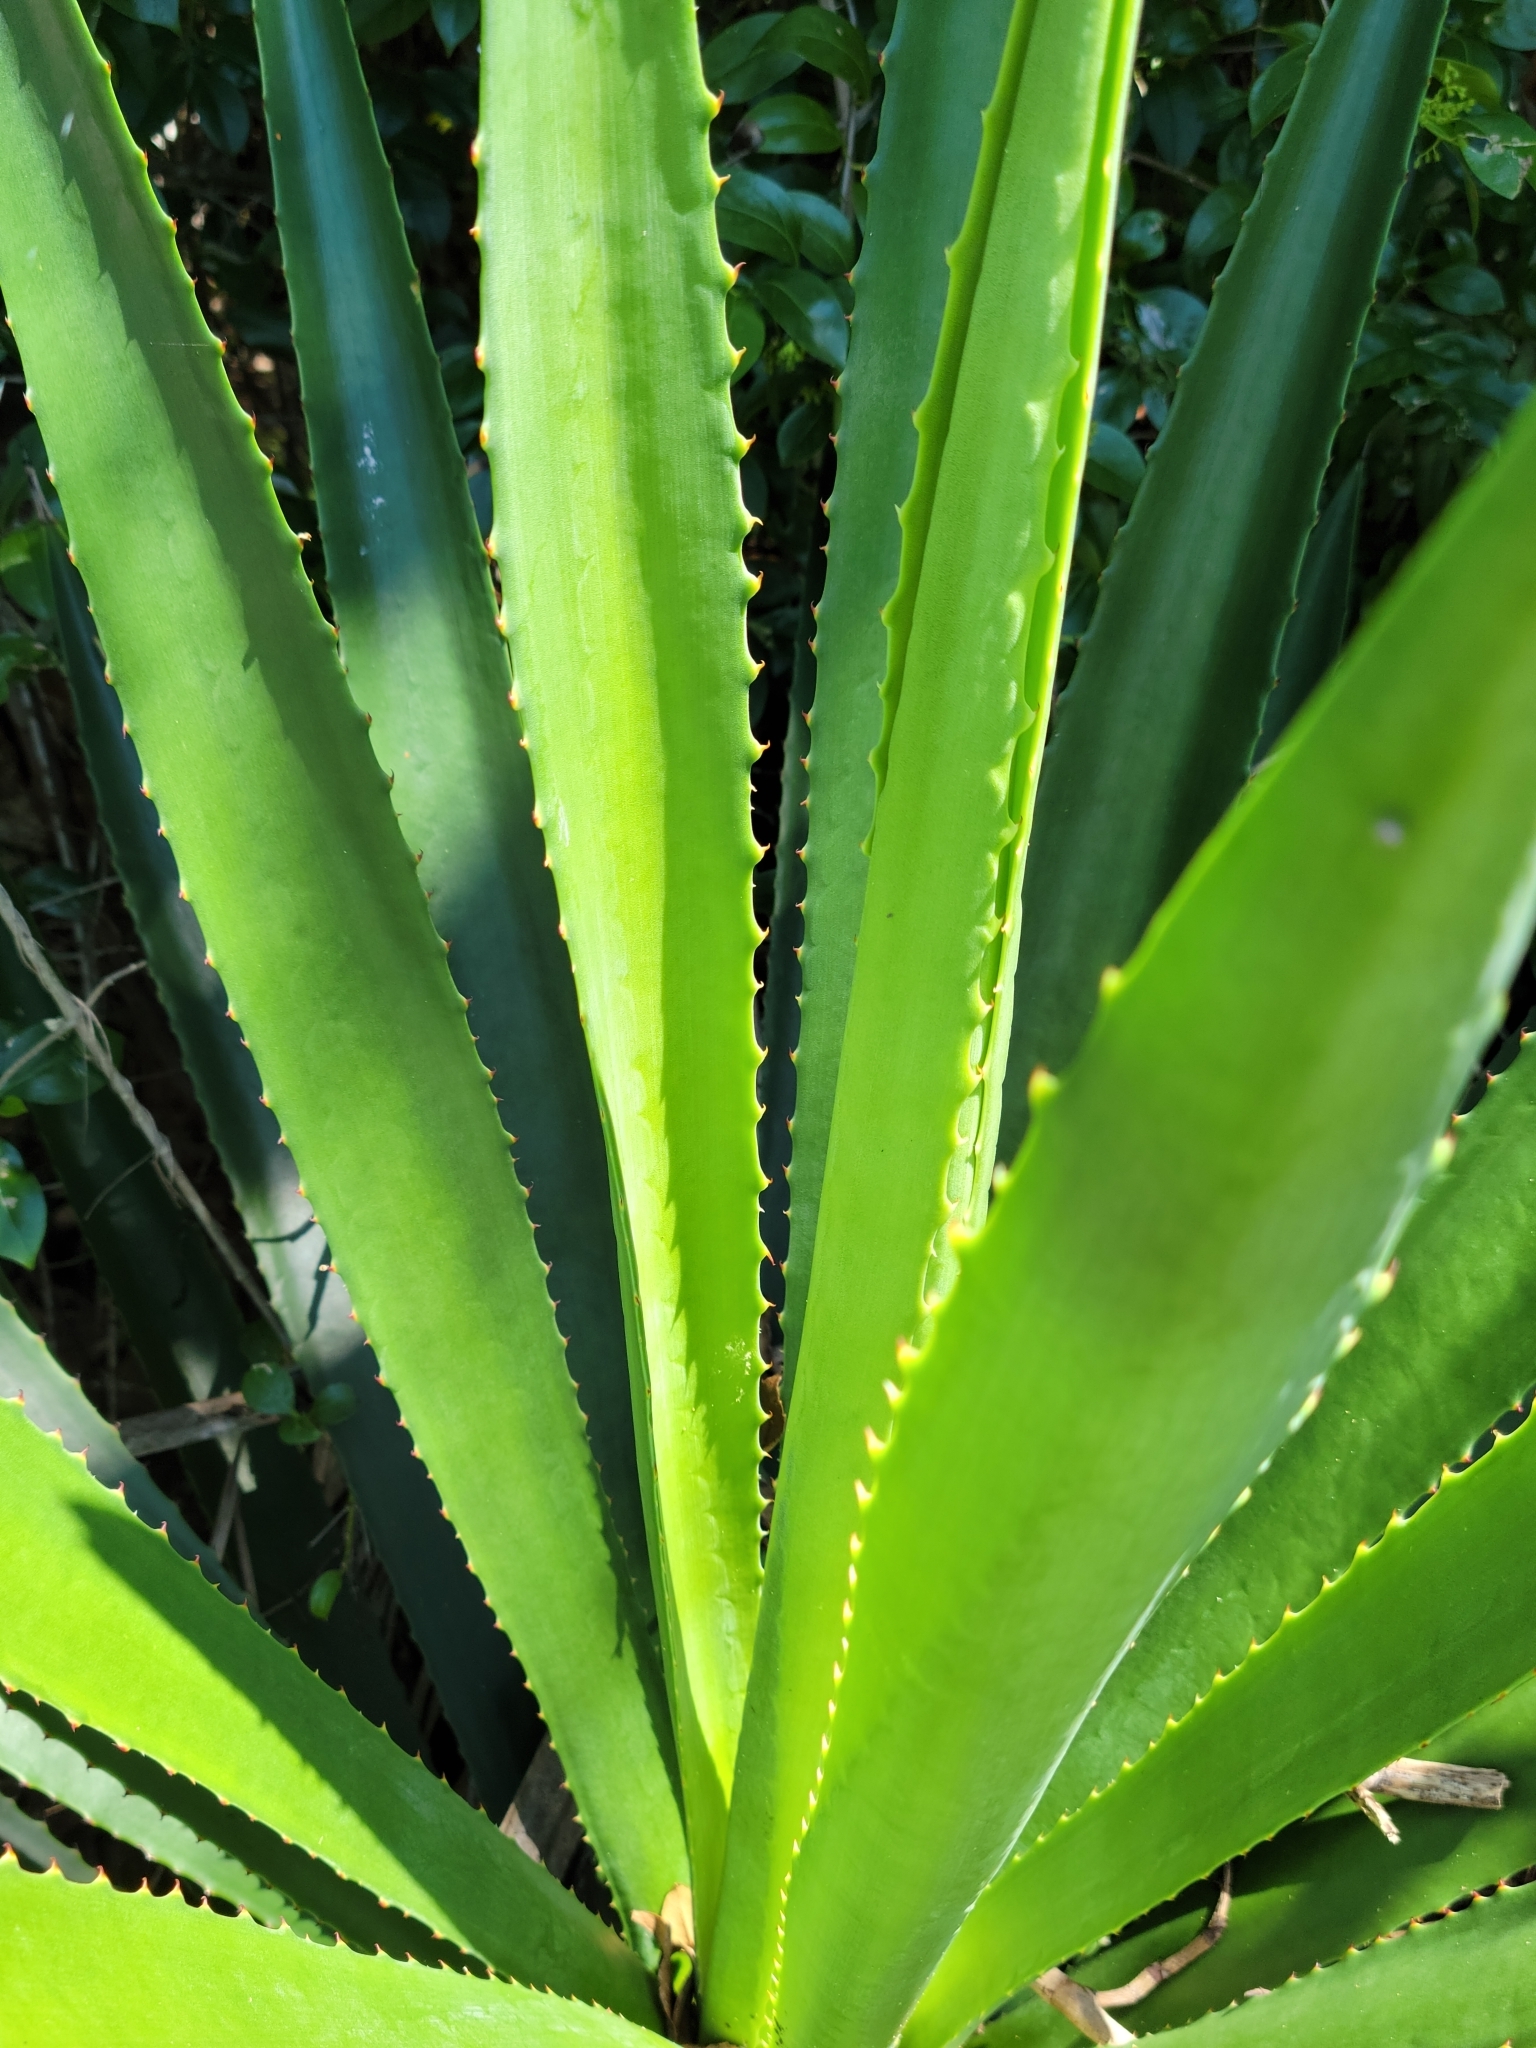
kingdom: Plantae
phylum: Tracheophyta
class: Liliopsida
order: Asparagales
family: Asparagaceae
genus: Agave
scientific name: Agave decipiens
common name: False sisal
